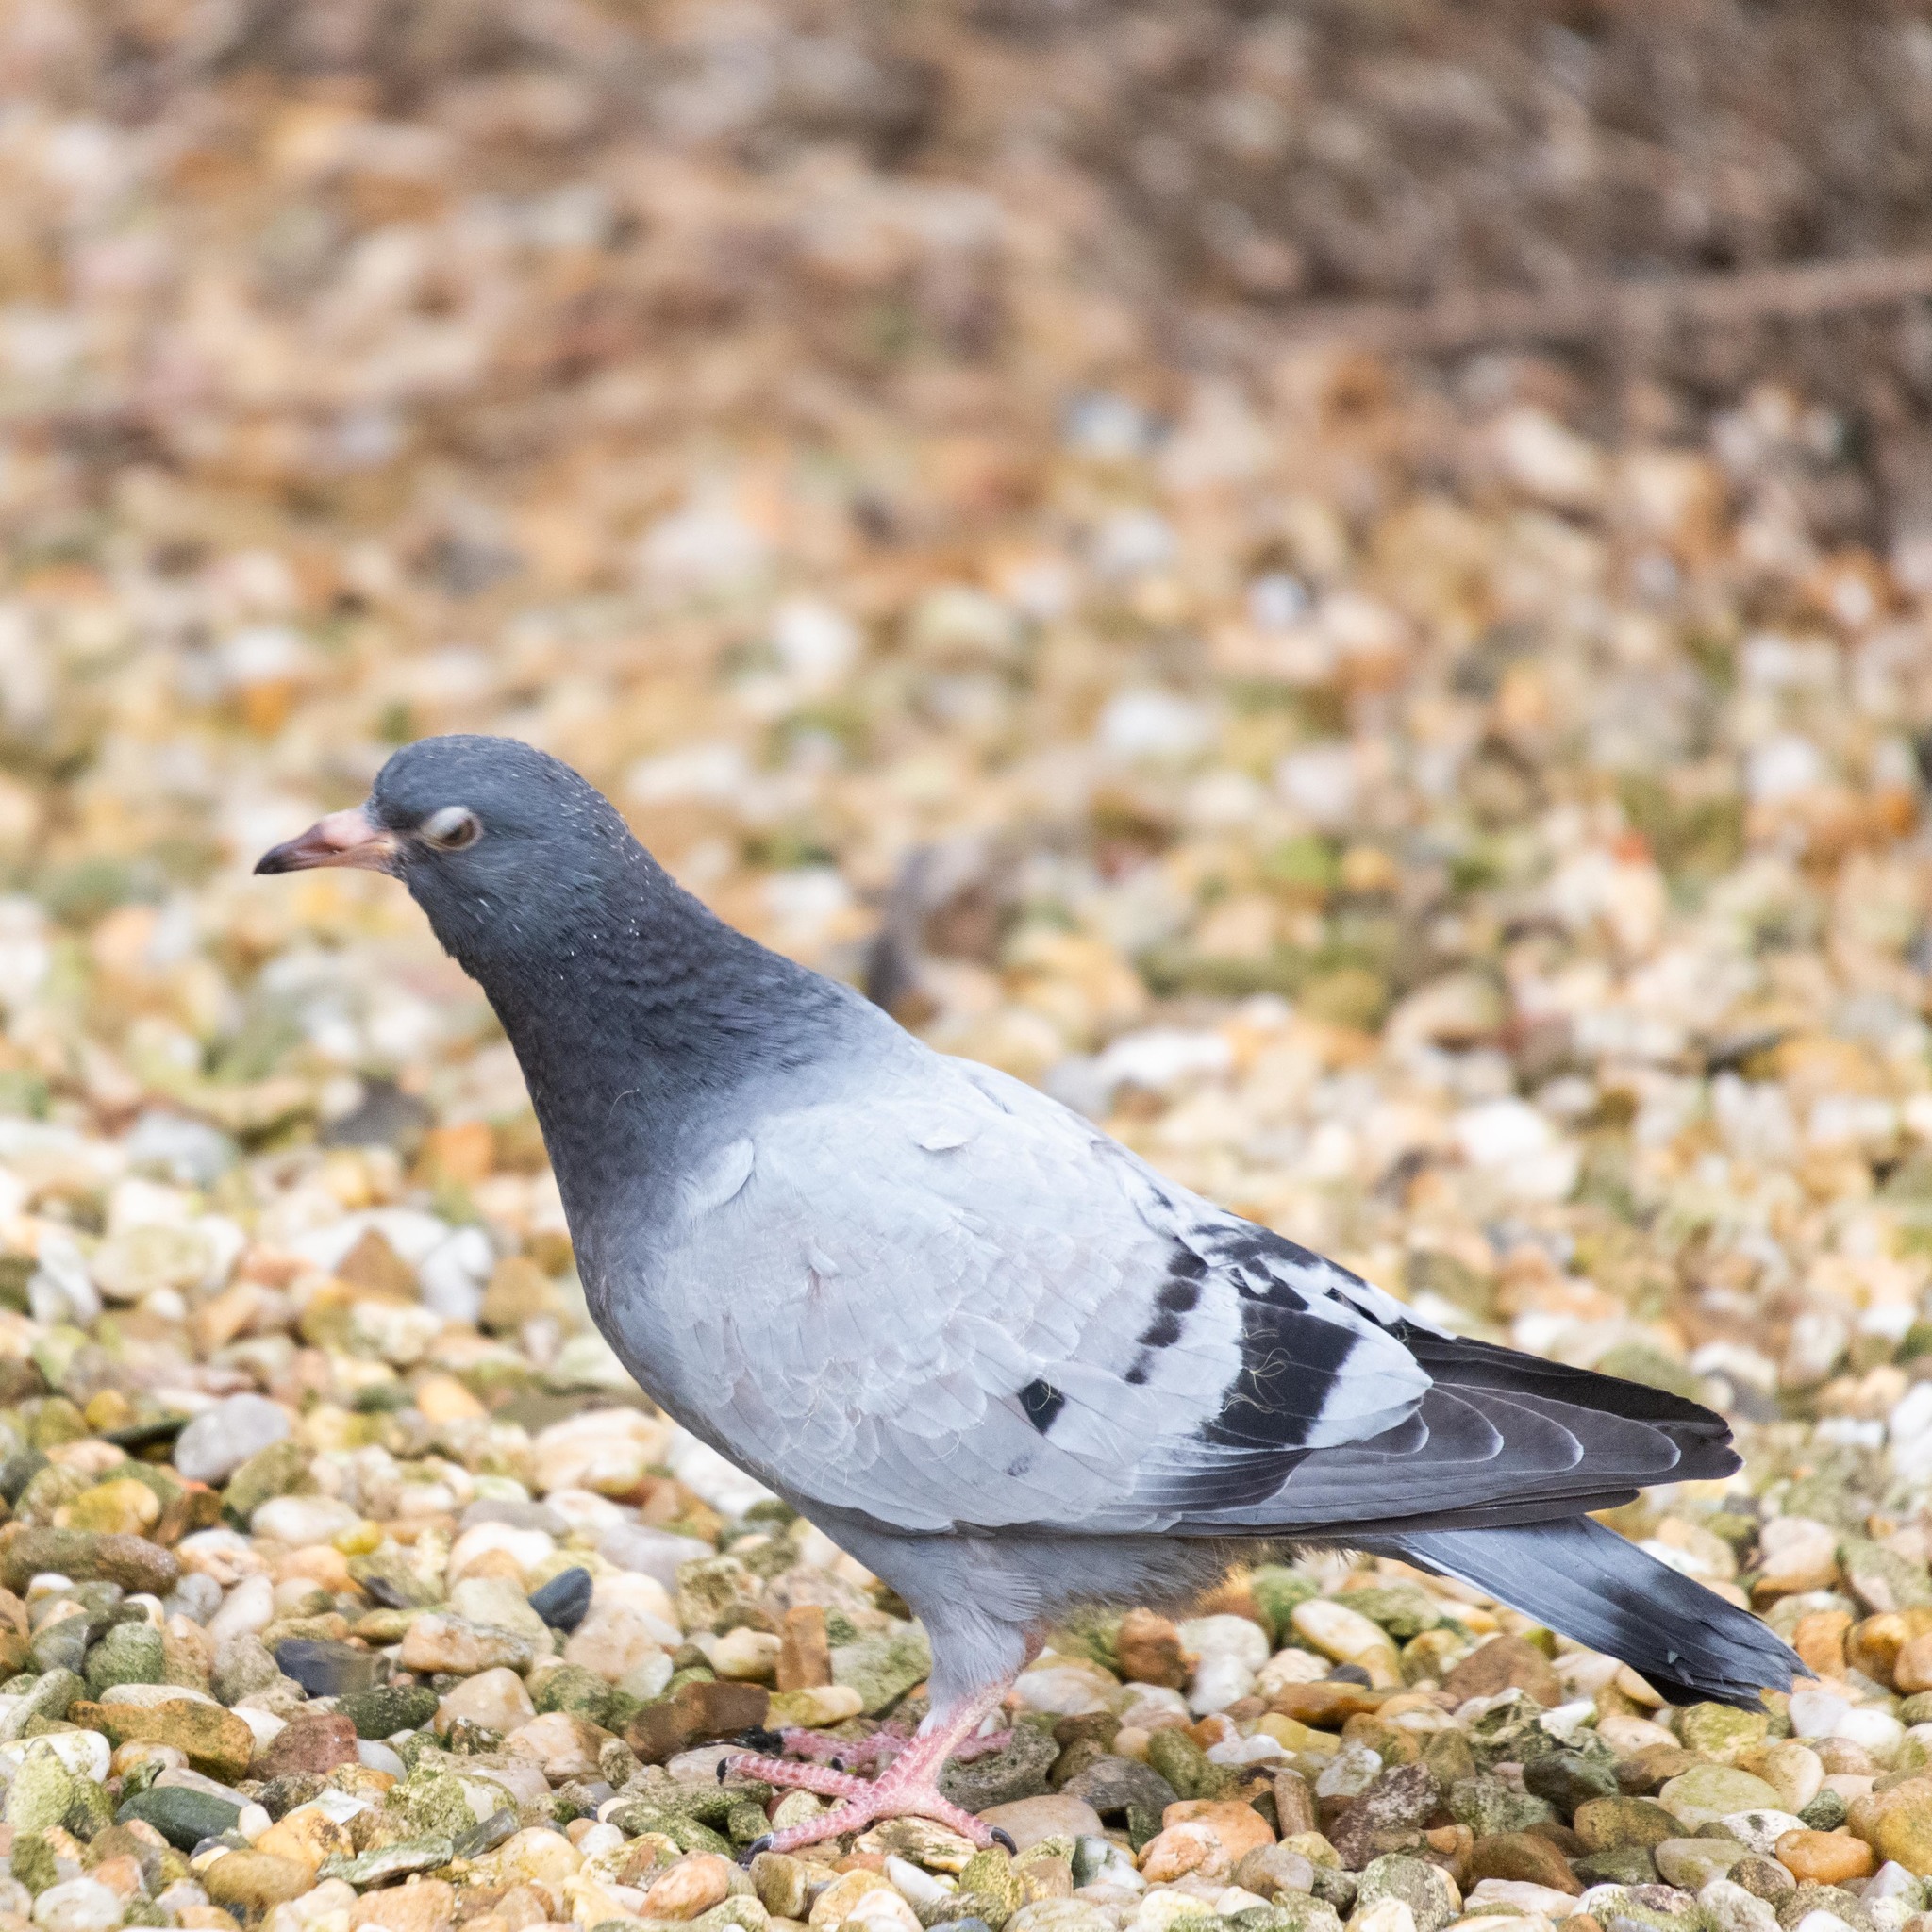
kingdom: Animalia
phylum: Chordata
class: Aves
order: Columbiformes
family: Columbidae
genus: Columba
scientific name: Columba livia
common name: Rock pigeon
